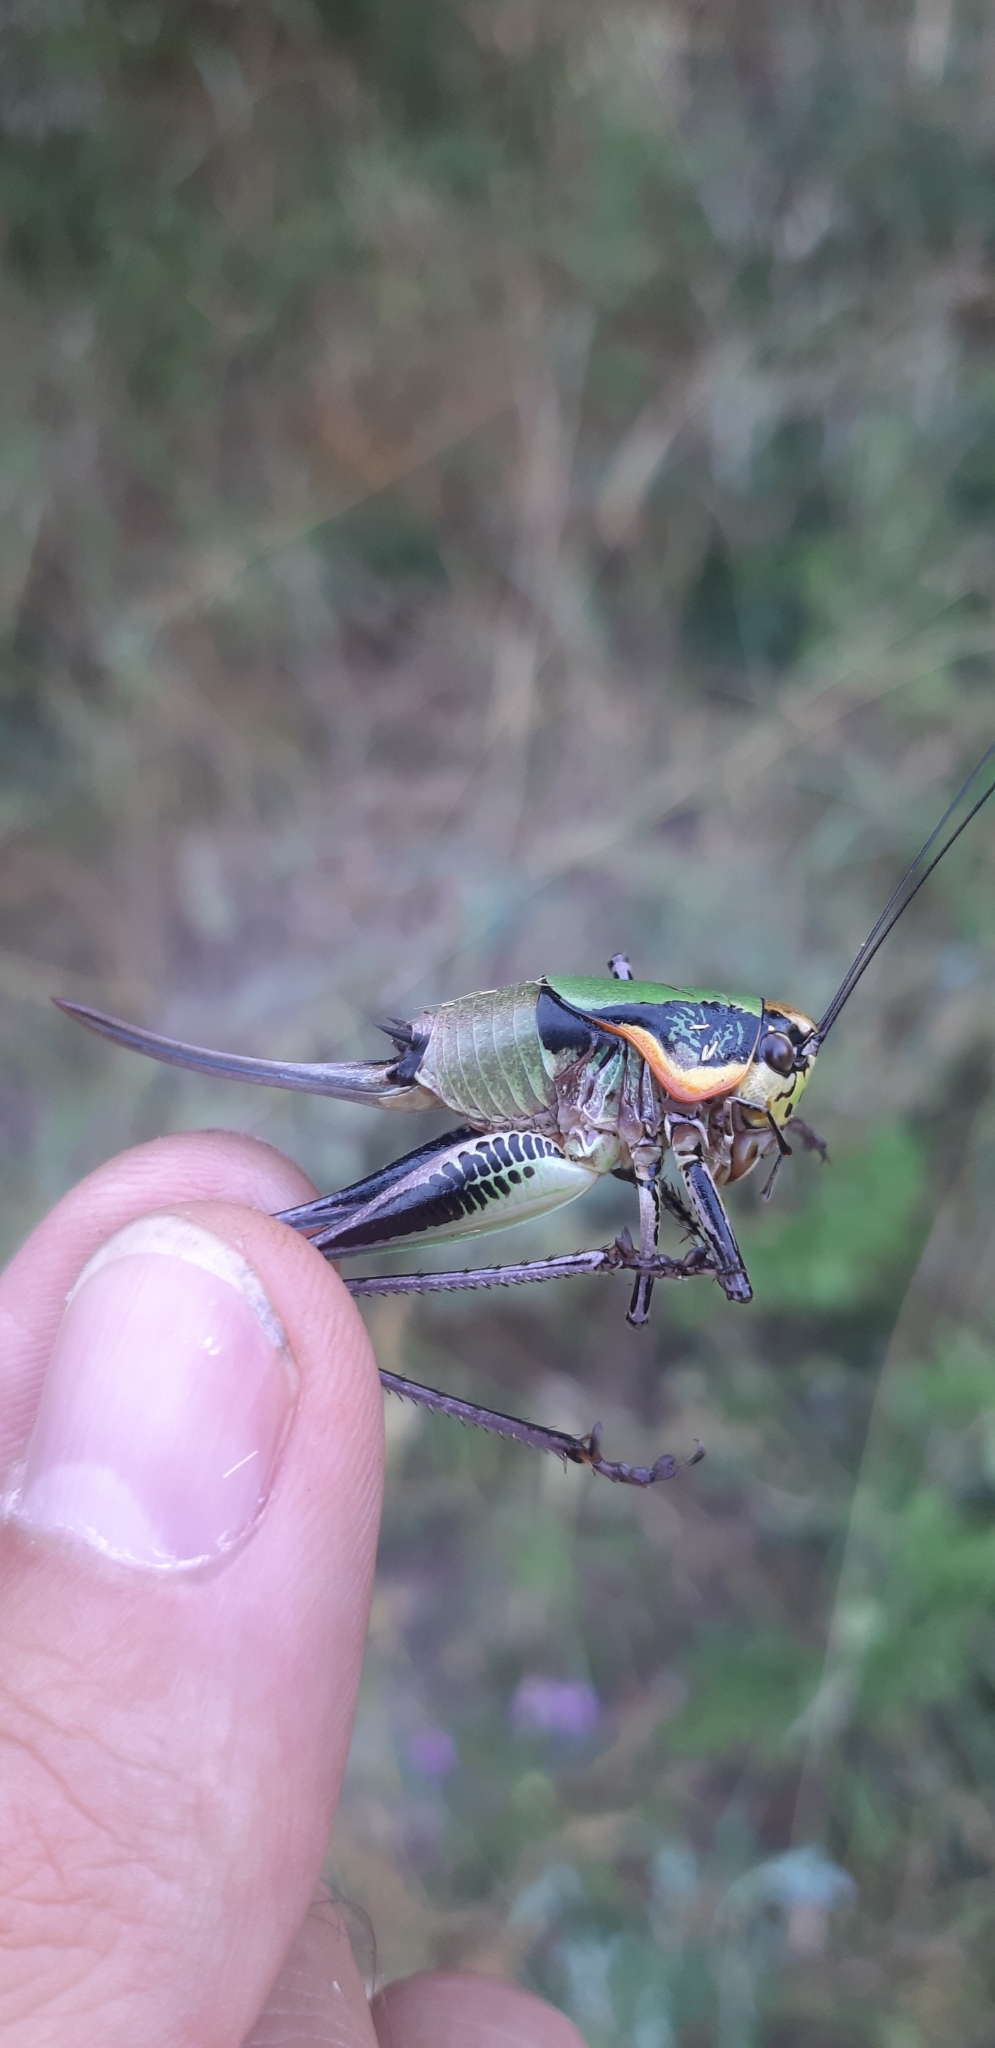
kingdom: Animalia
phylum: Arthropoda
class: Insecta
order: Orthoptera
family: Tettigoniidae
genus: Eupholidoptera
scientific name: Eupholidoptera magnifica
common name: Splendid marbled bush-cricket
